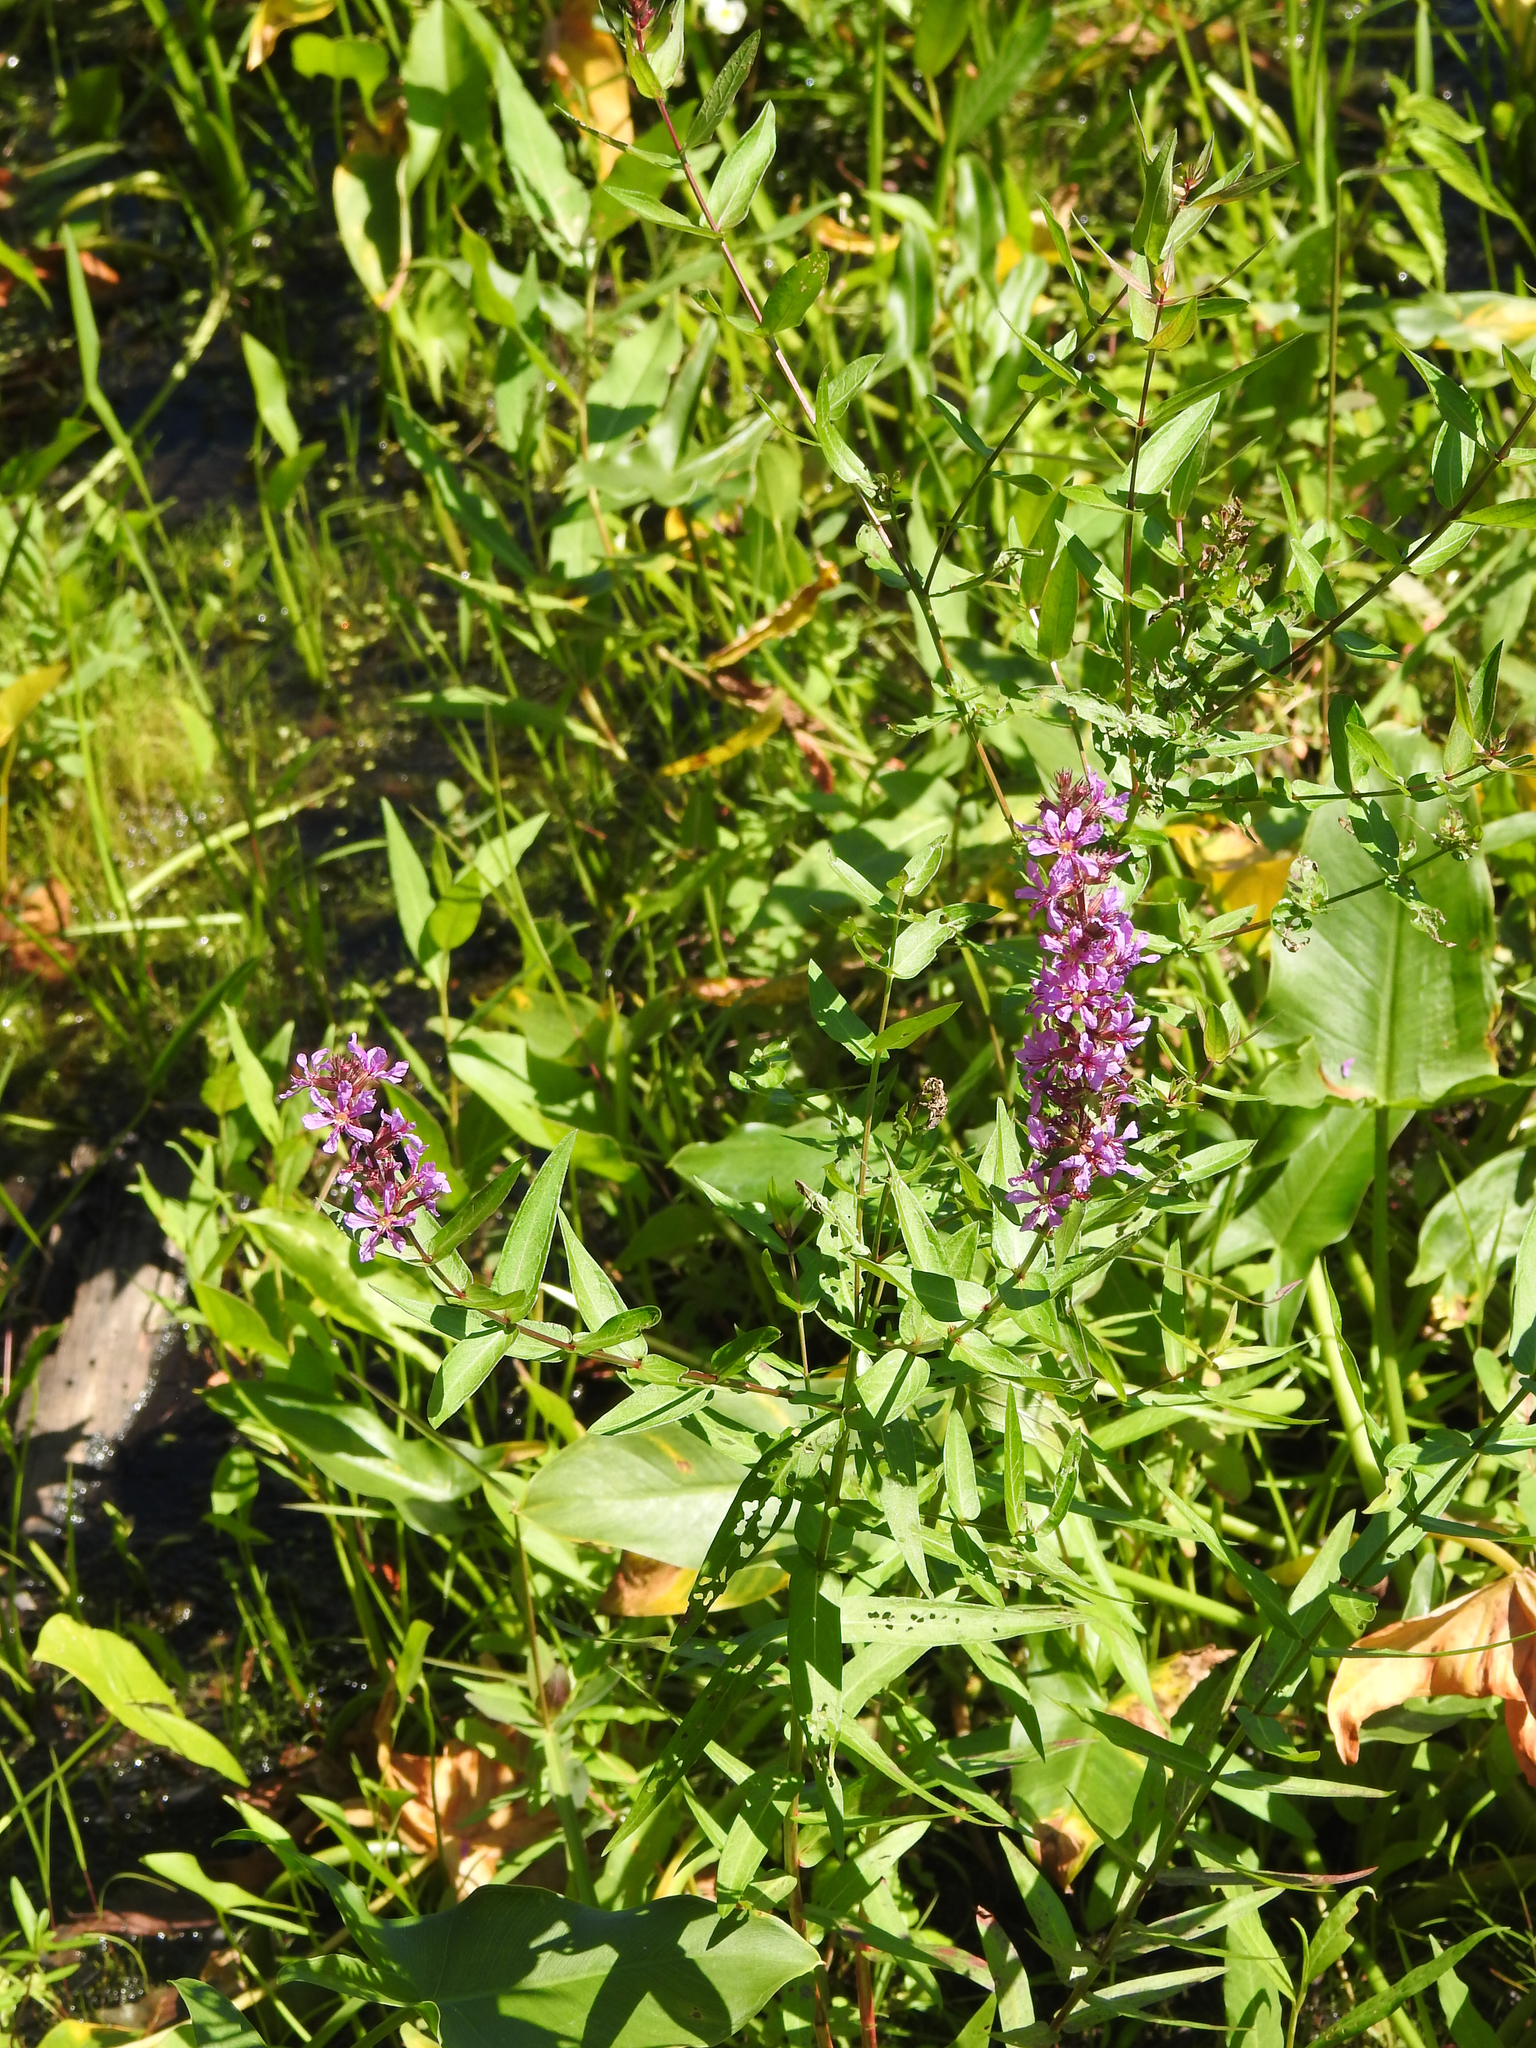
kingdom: Plantae
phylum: Tracheophyta
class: Magnoliopsida
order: Myrtales
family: Lythraceae
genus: Lythrum
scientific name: Lythrum salicaria
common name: Purple loosestrife
